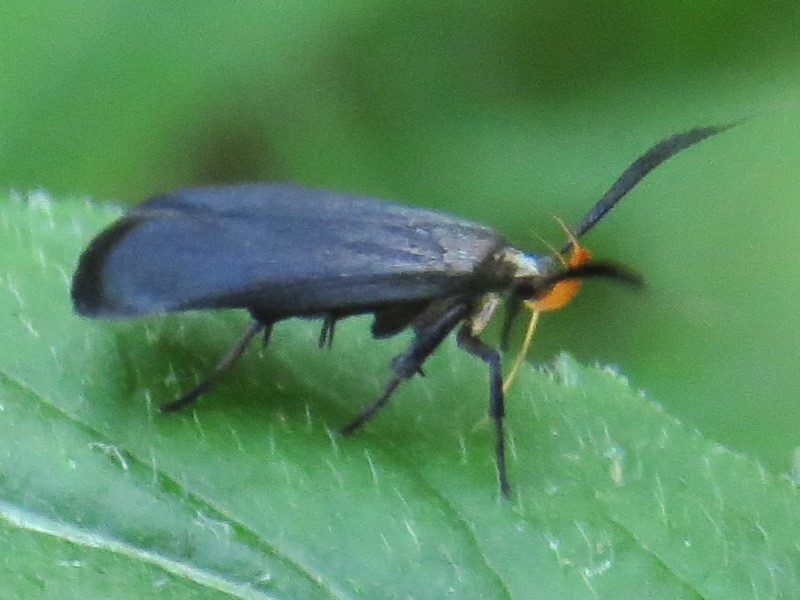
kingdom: Animalia
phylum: Arthropoda
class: Insecta
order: Lepidoptera
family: Gelechiidae
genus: Dichomeris
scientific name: Dichomeris nonstrigella
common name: Little devil moth
